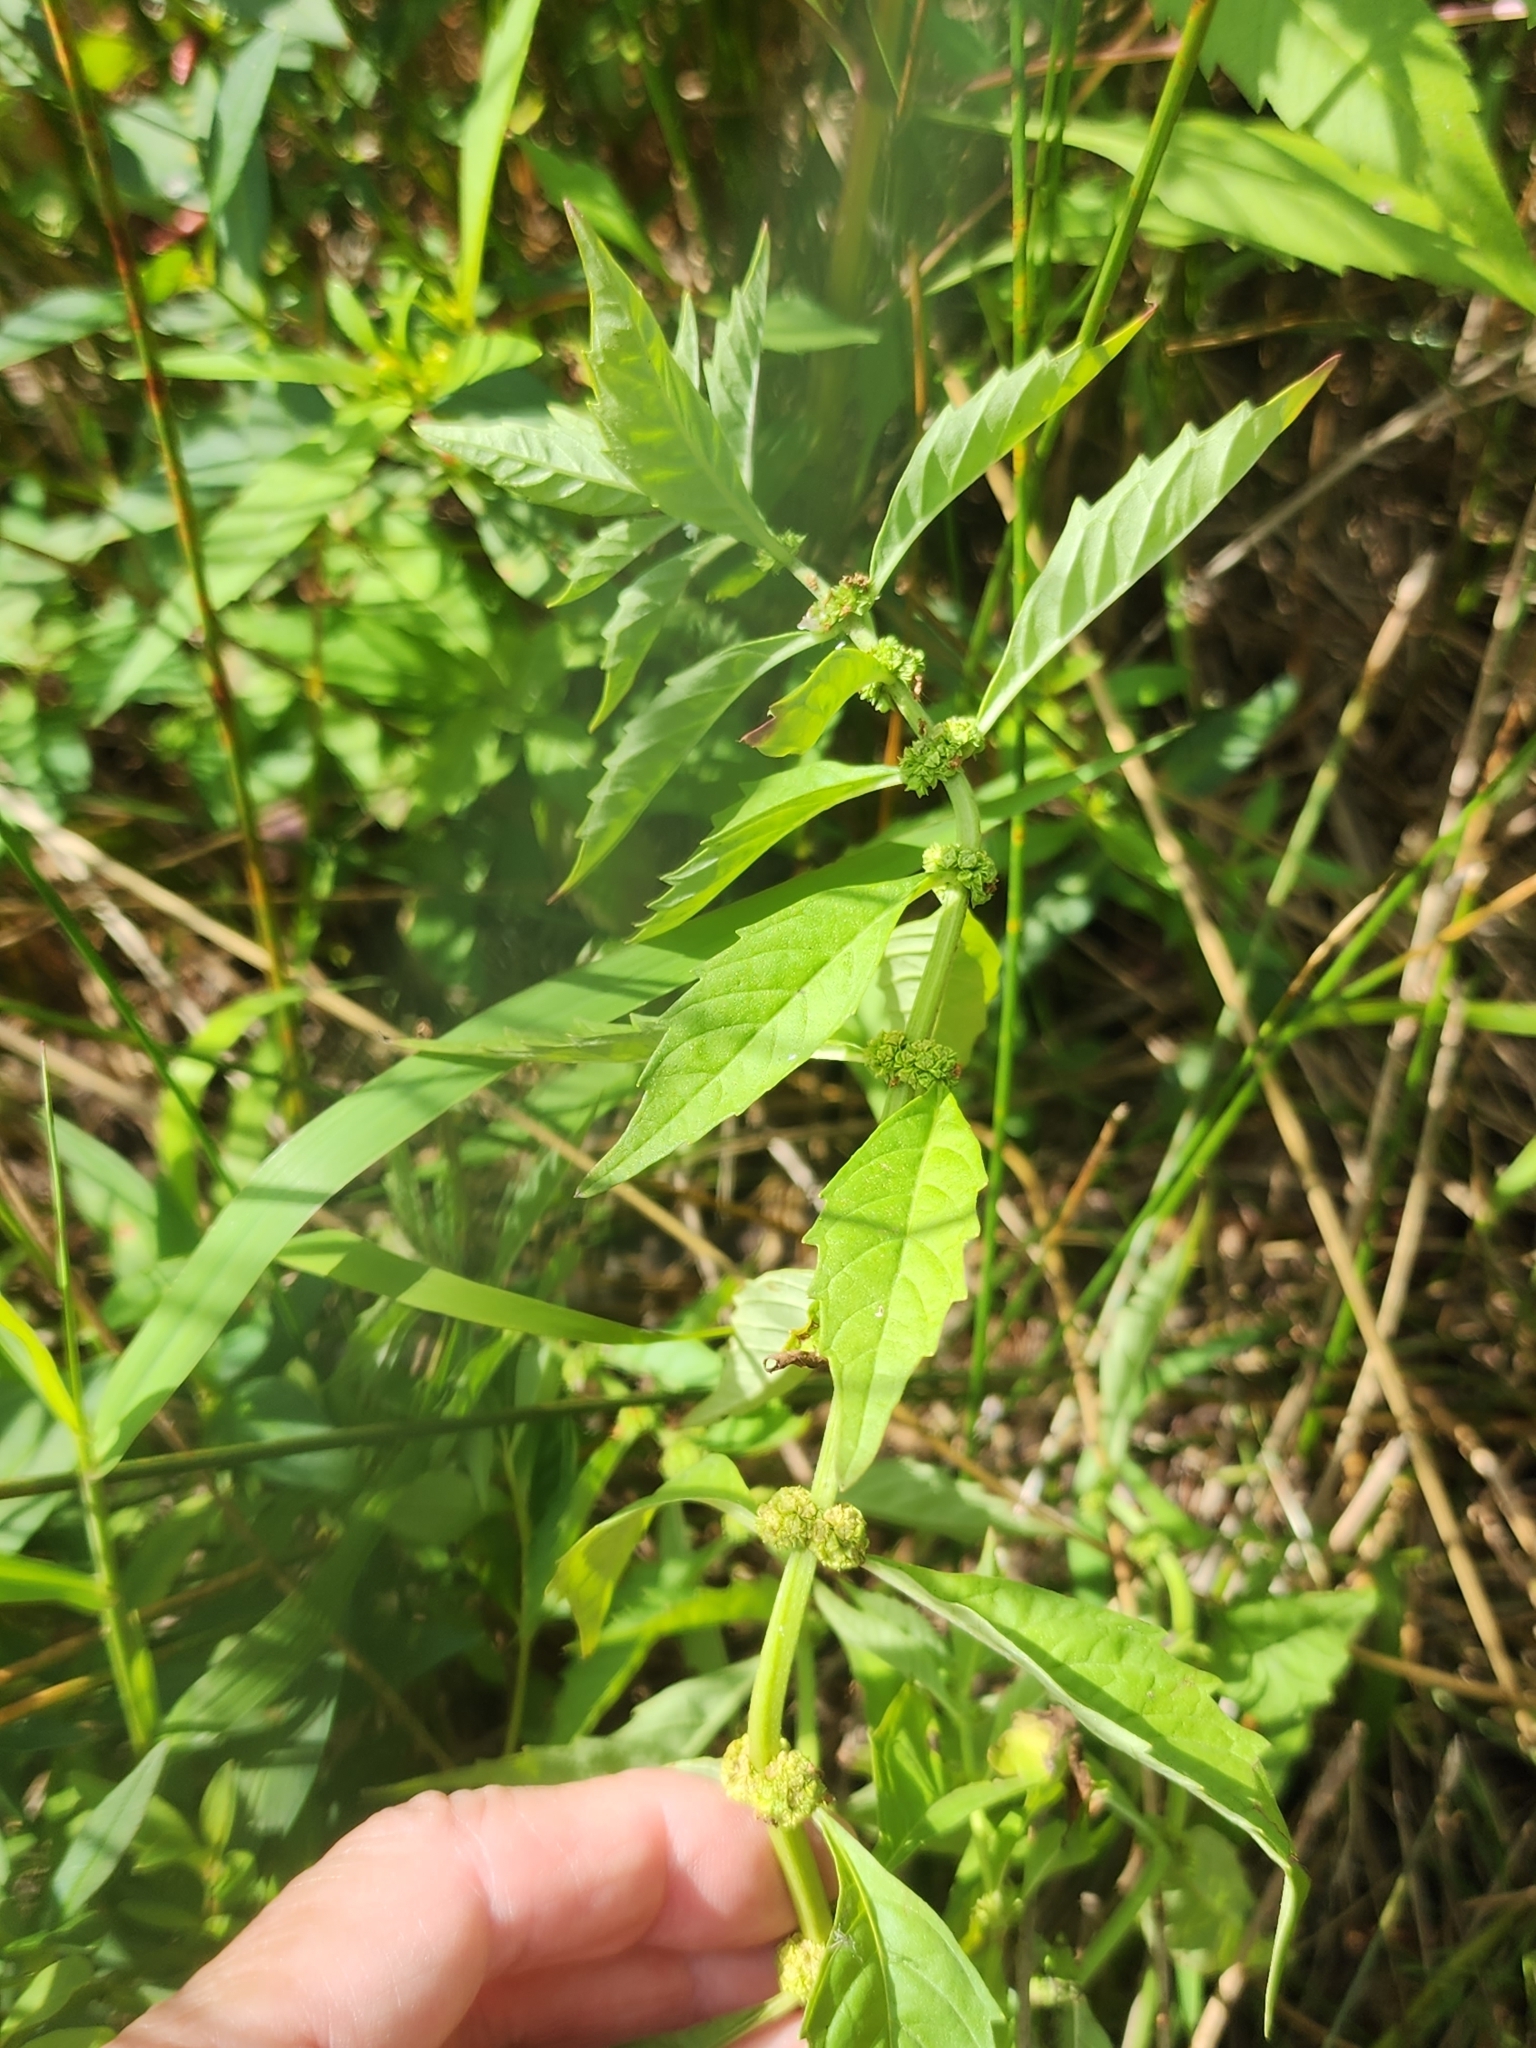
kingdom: Plantae
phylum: Tracheophyta
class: Magnoliopsida
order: Lamiales
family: Lamiaceae
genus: Lycopus
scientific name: Lycopus uniflorus
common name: Northern bugleweed
